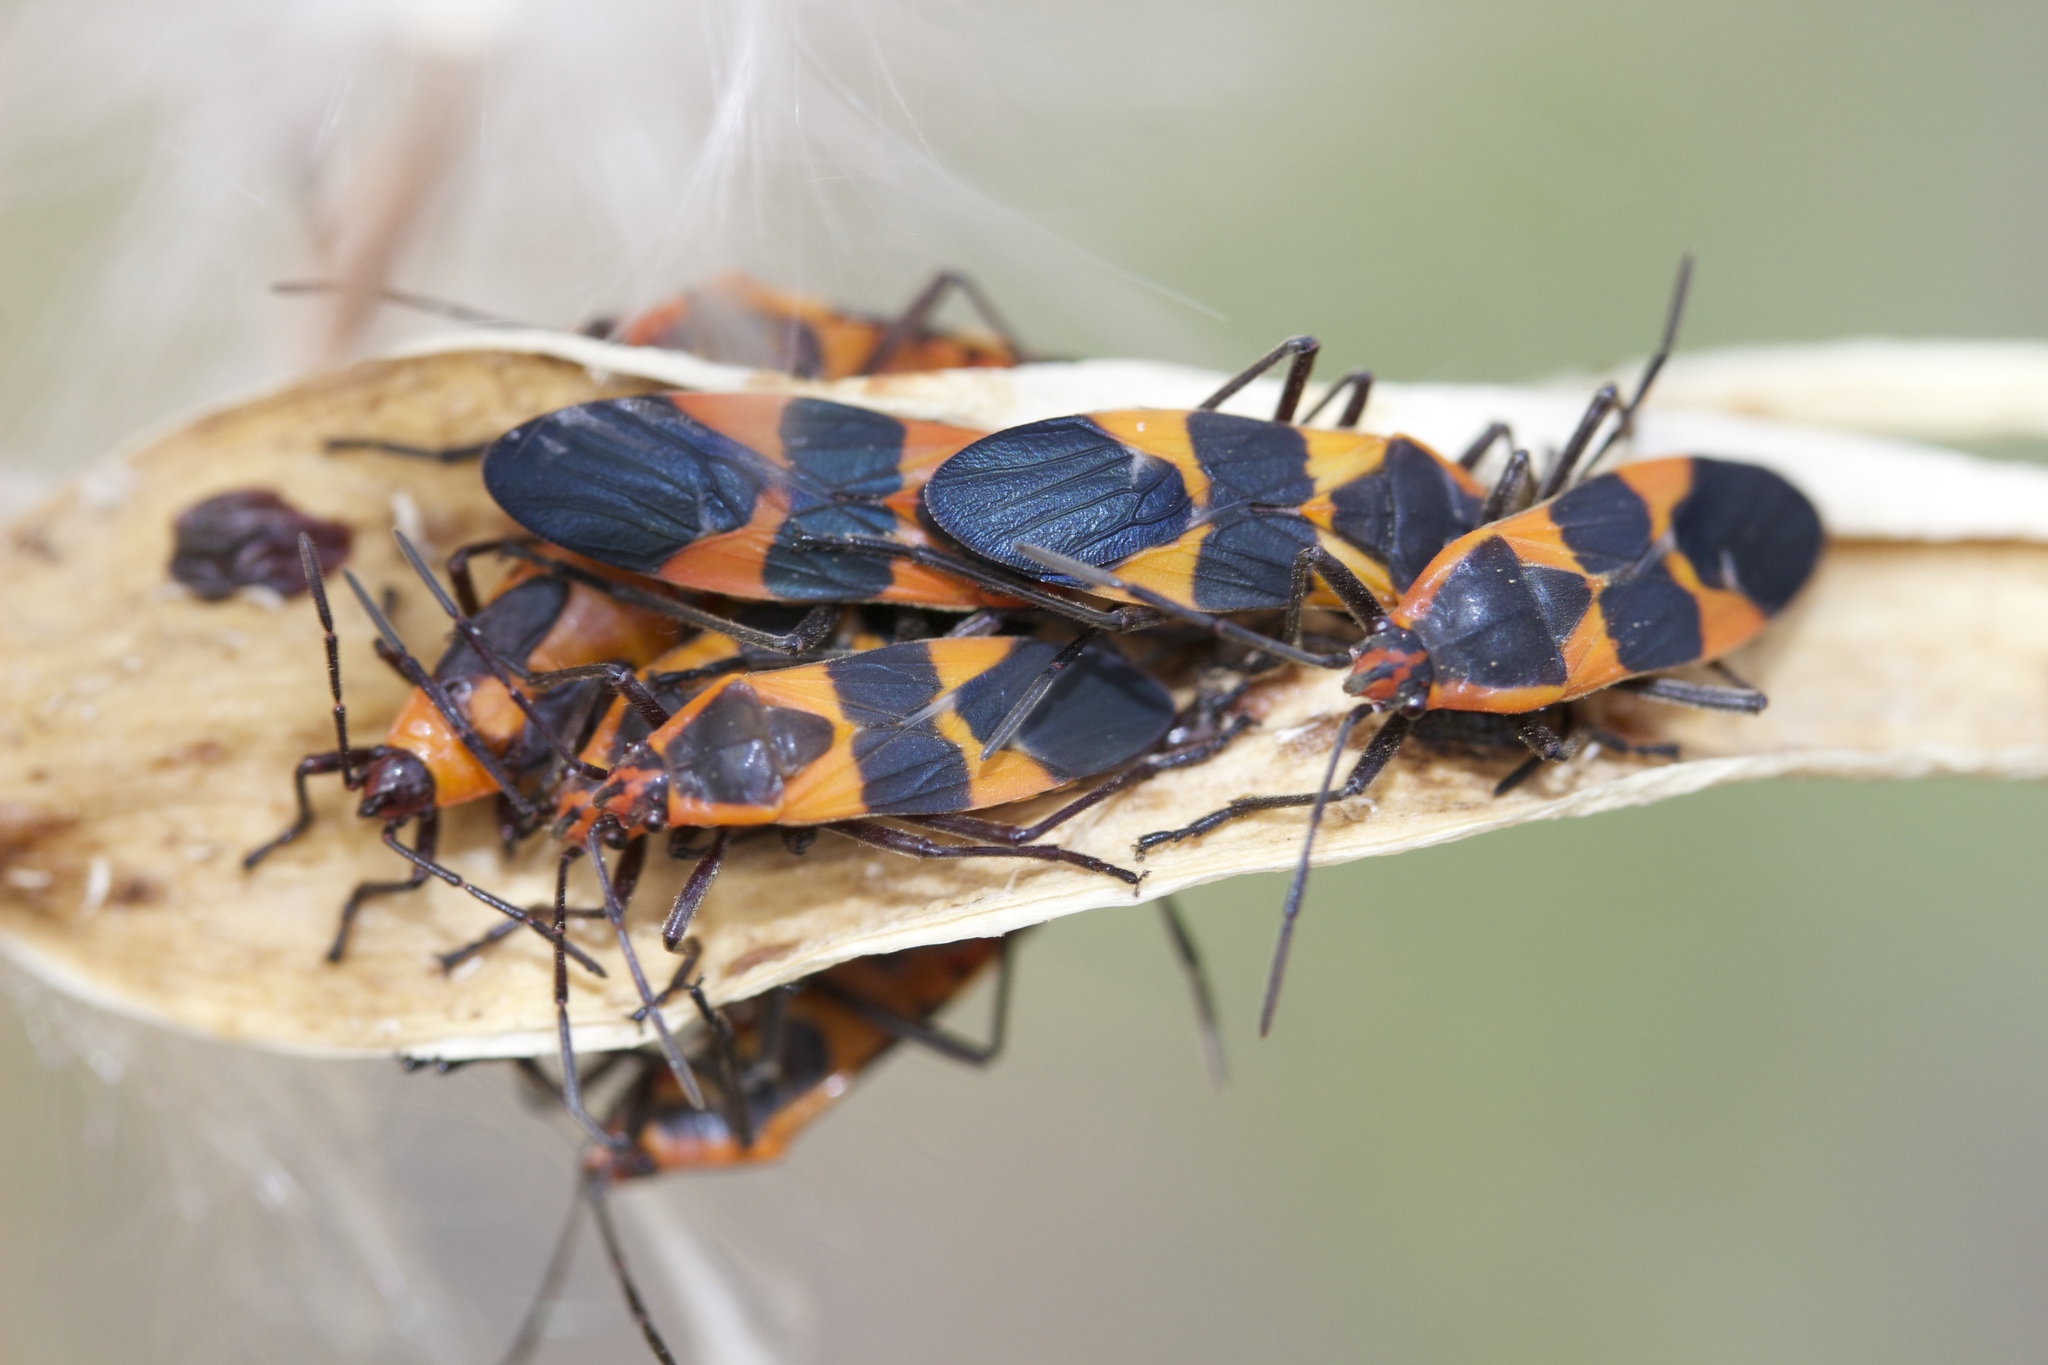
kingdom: Animalia
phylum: Arthropoda
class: Insecta
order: Hemiptera
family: Lygaeidae
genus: Oncopeltus
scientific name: Oncopeltus fasciatus
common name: Large milkweed bug
